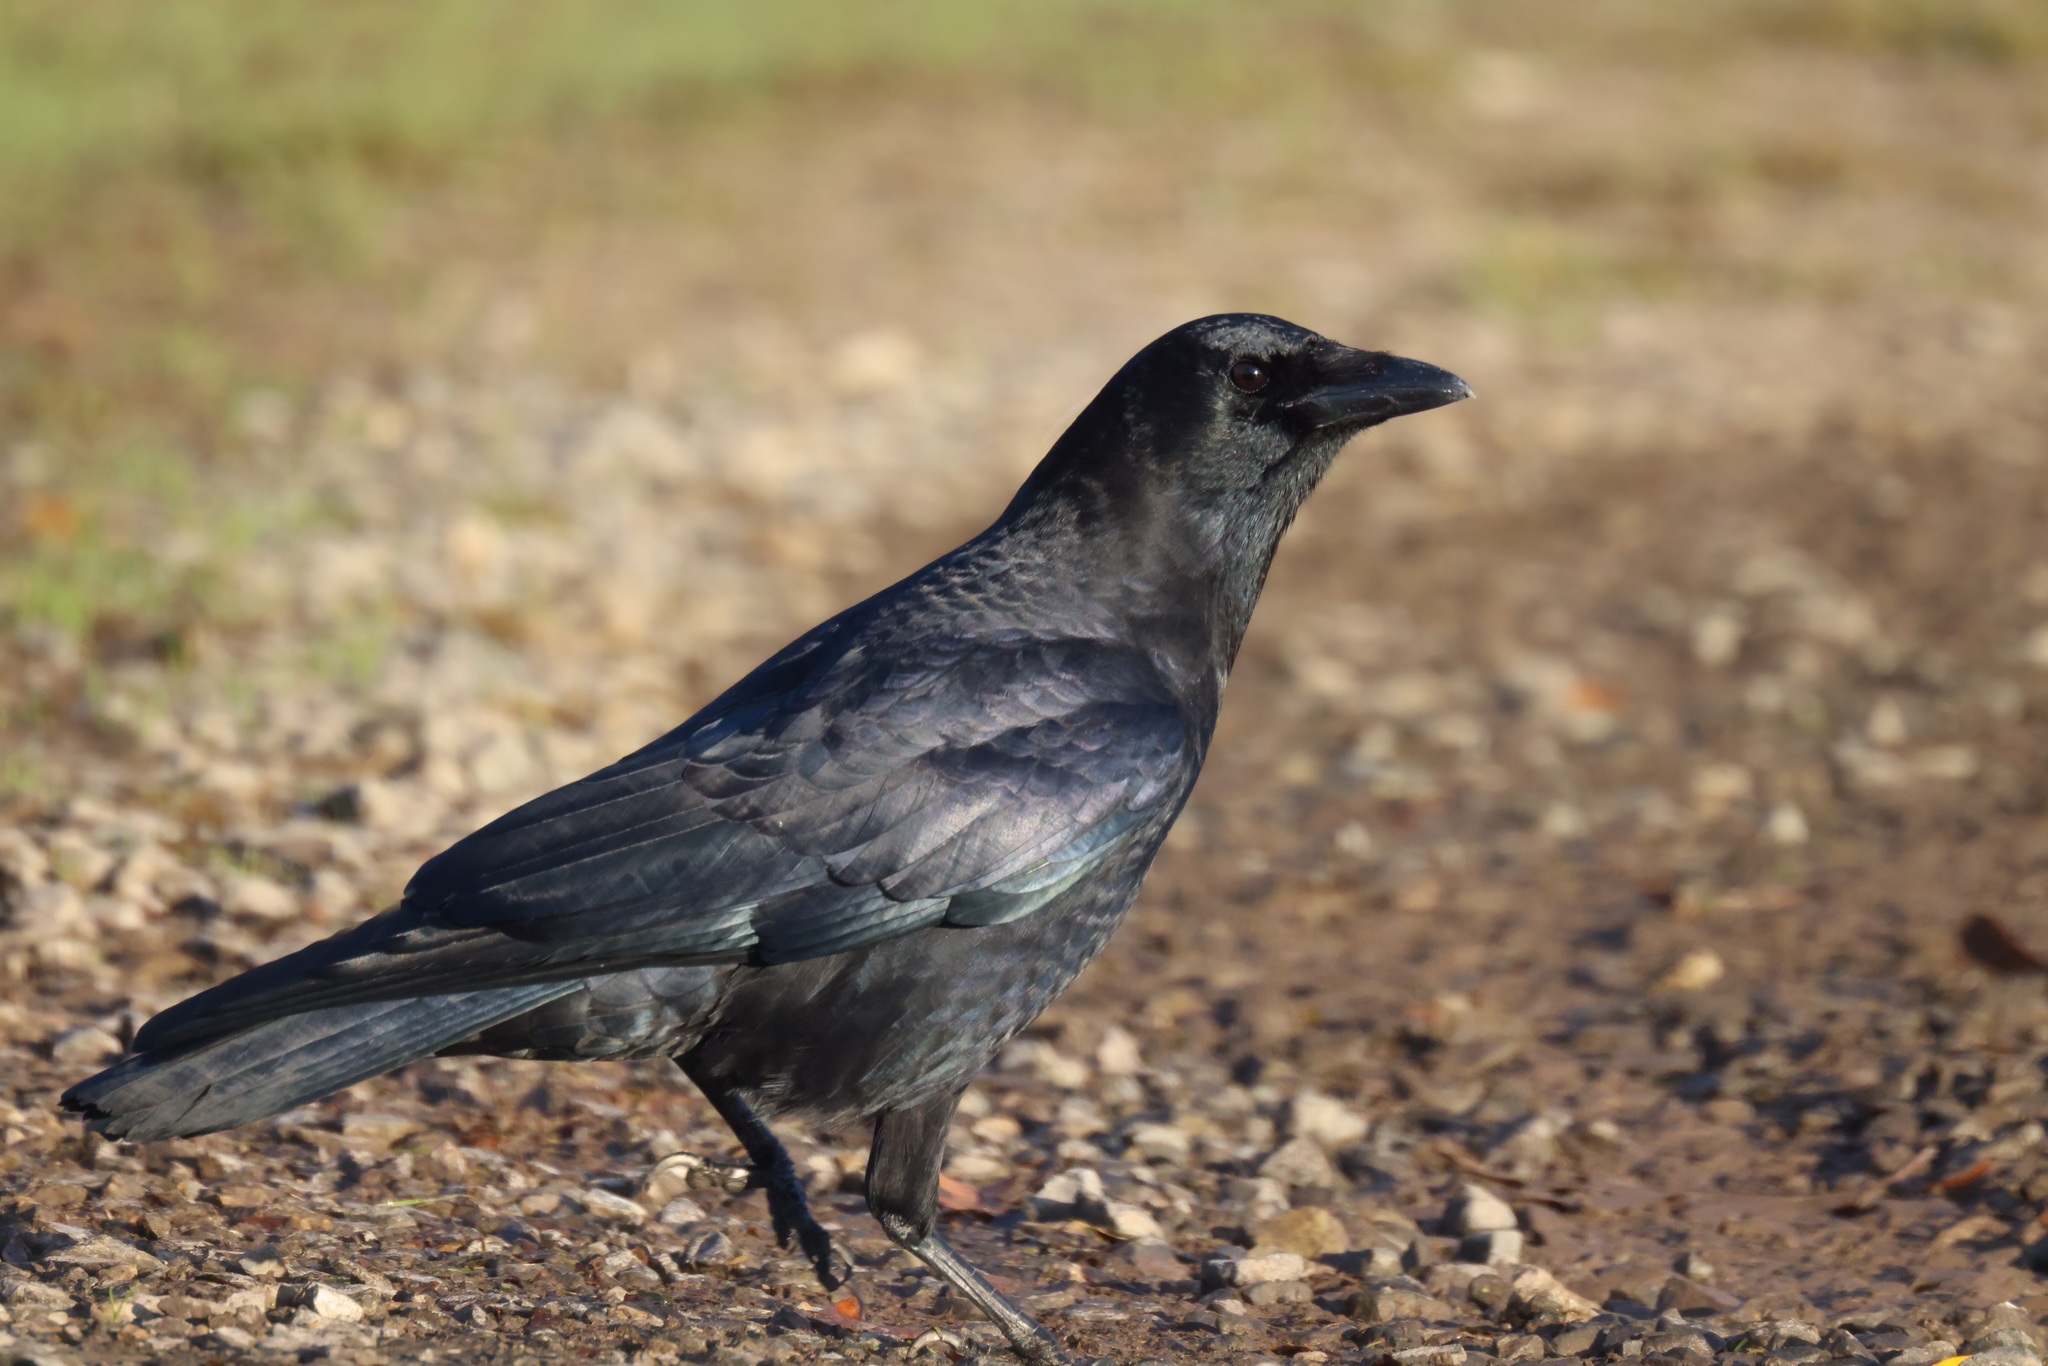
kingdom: Animalia
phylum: Chordata
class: Aves
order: Passeriformes
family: Corvidae
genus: Corvus
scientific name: Corvus brachyrhynchos
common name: American crow
